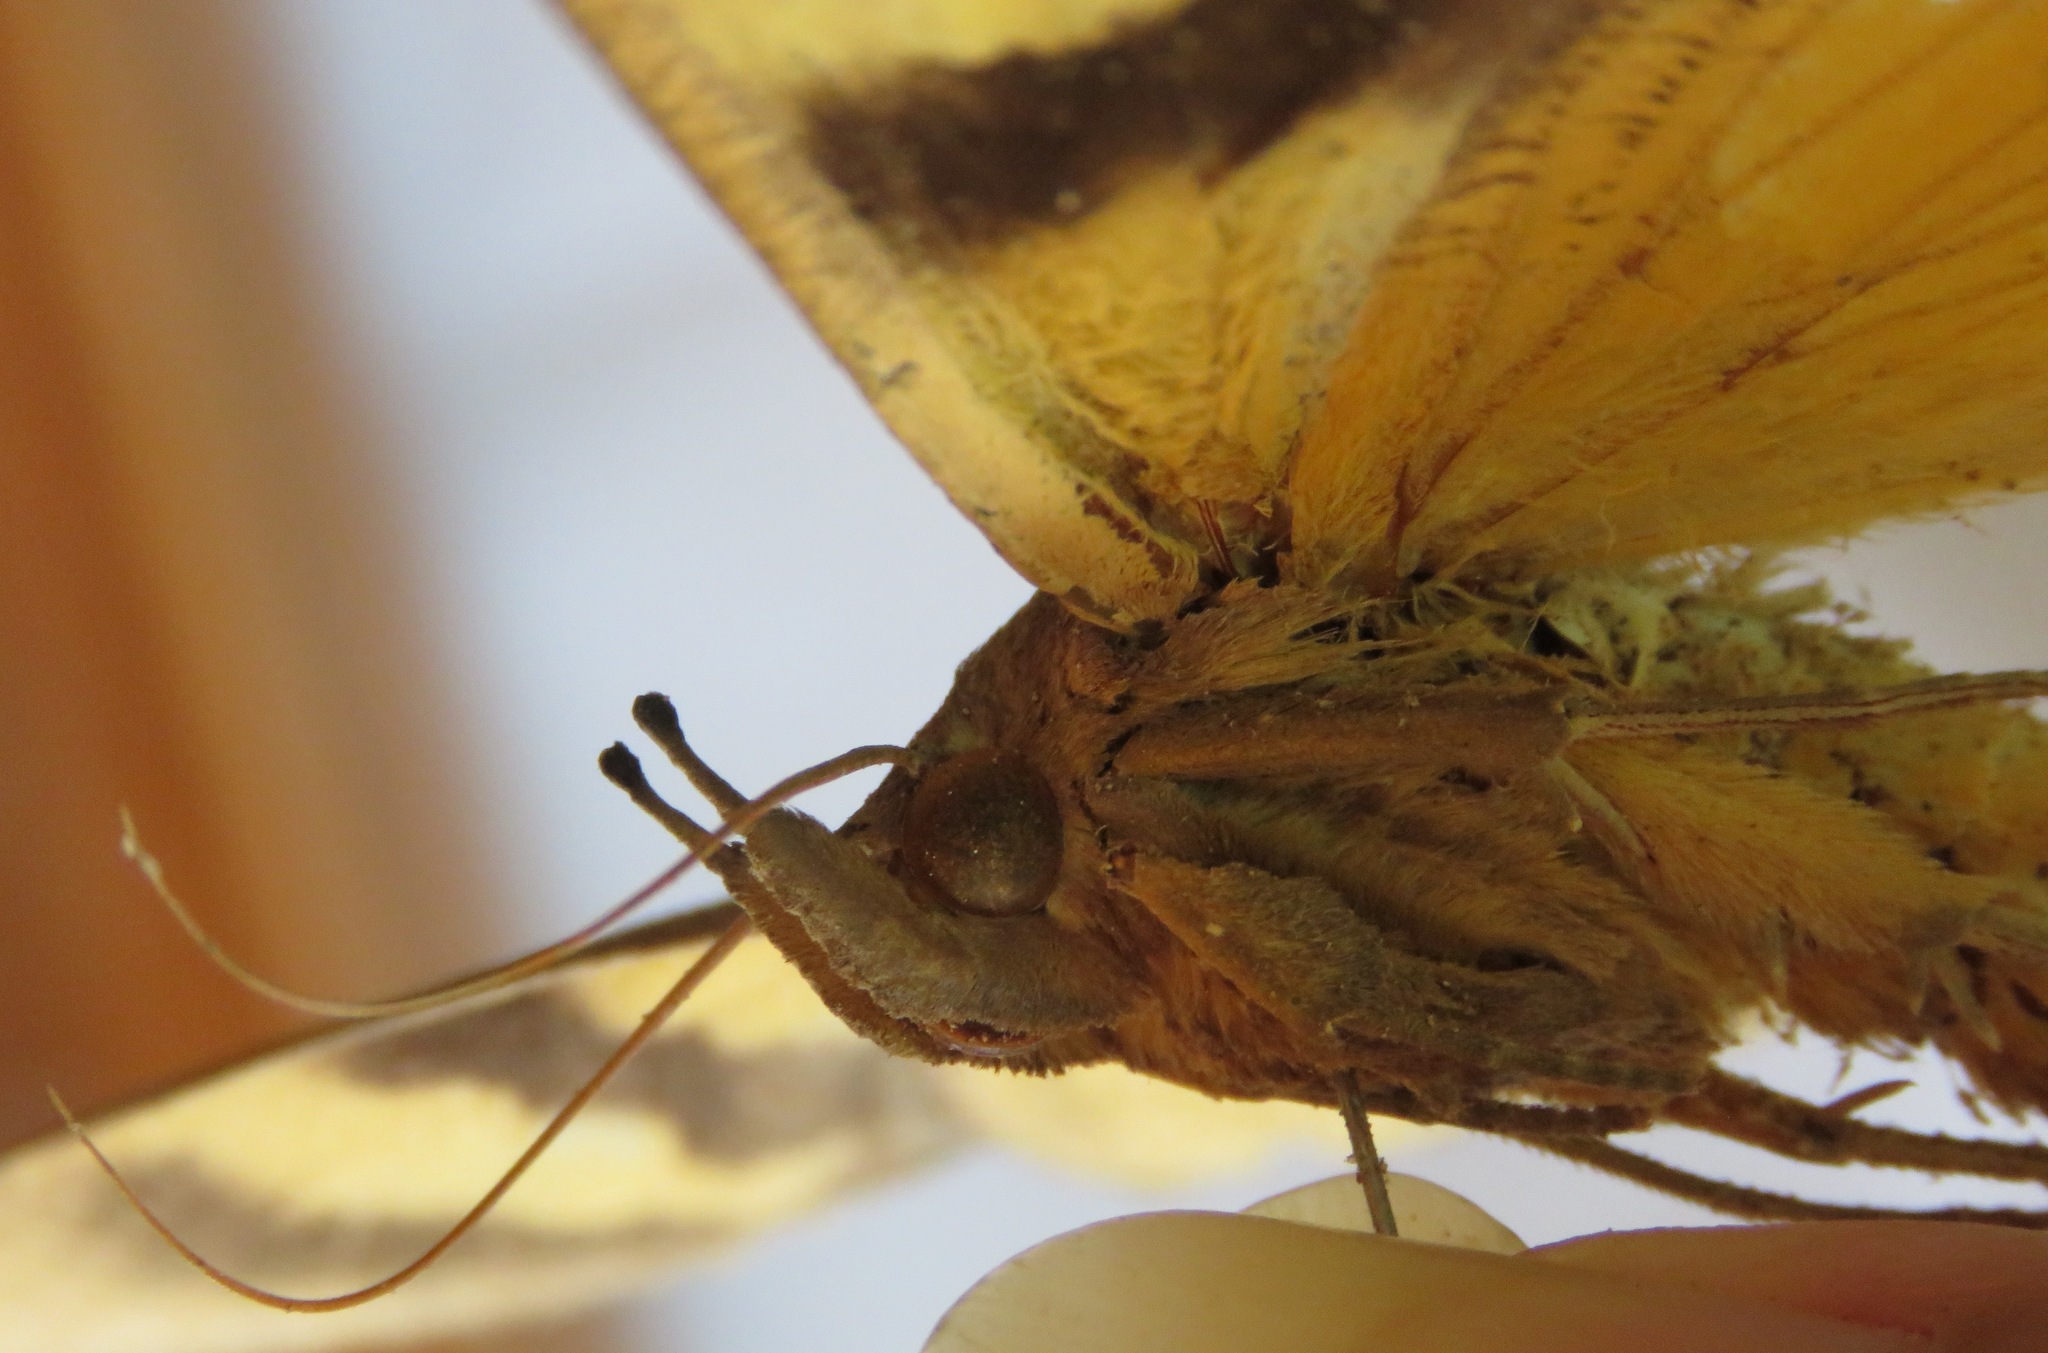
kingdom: Animalia
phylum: Arthropoda
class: Insecta
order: Lepidoptera
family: Erebidae
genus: Eudocima
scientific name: Eudocima serpentifera
